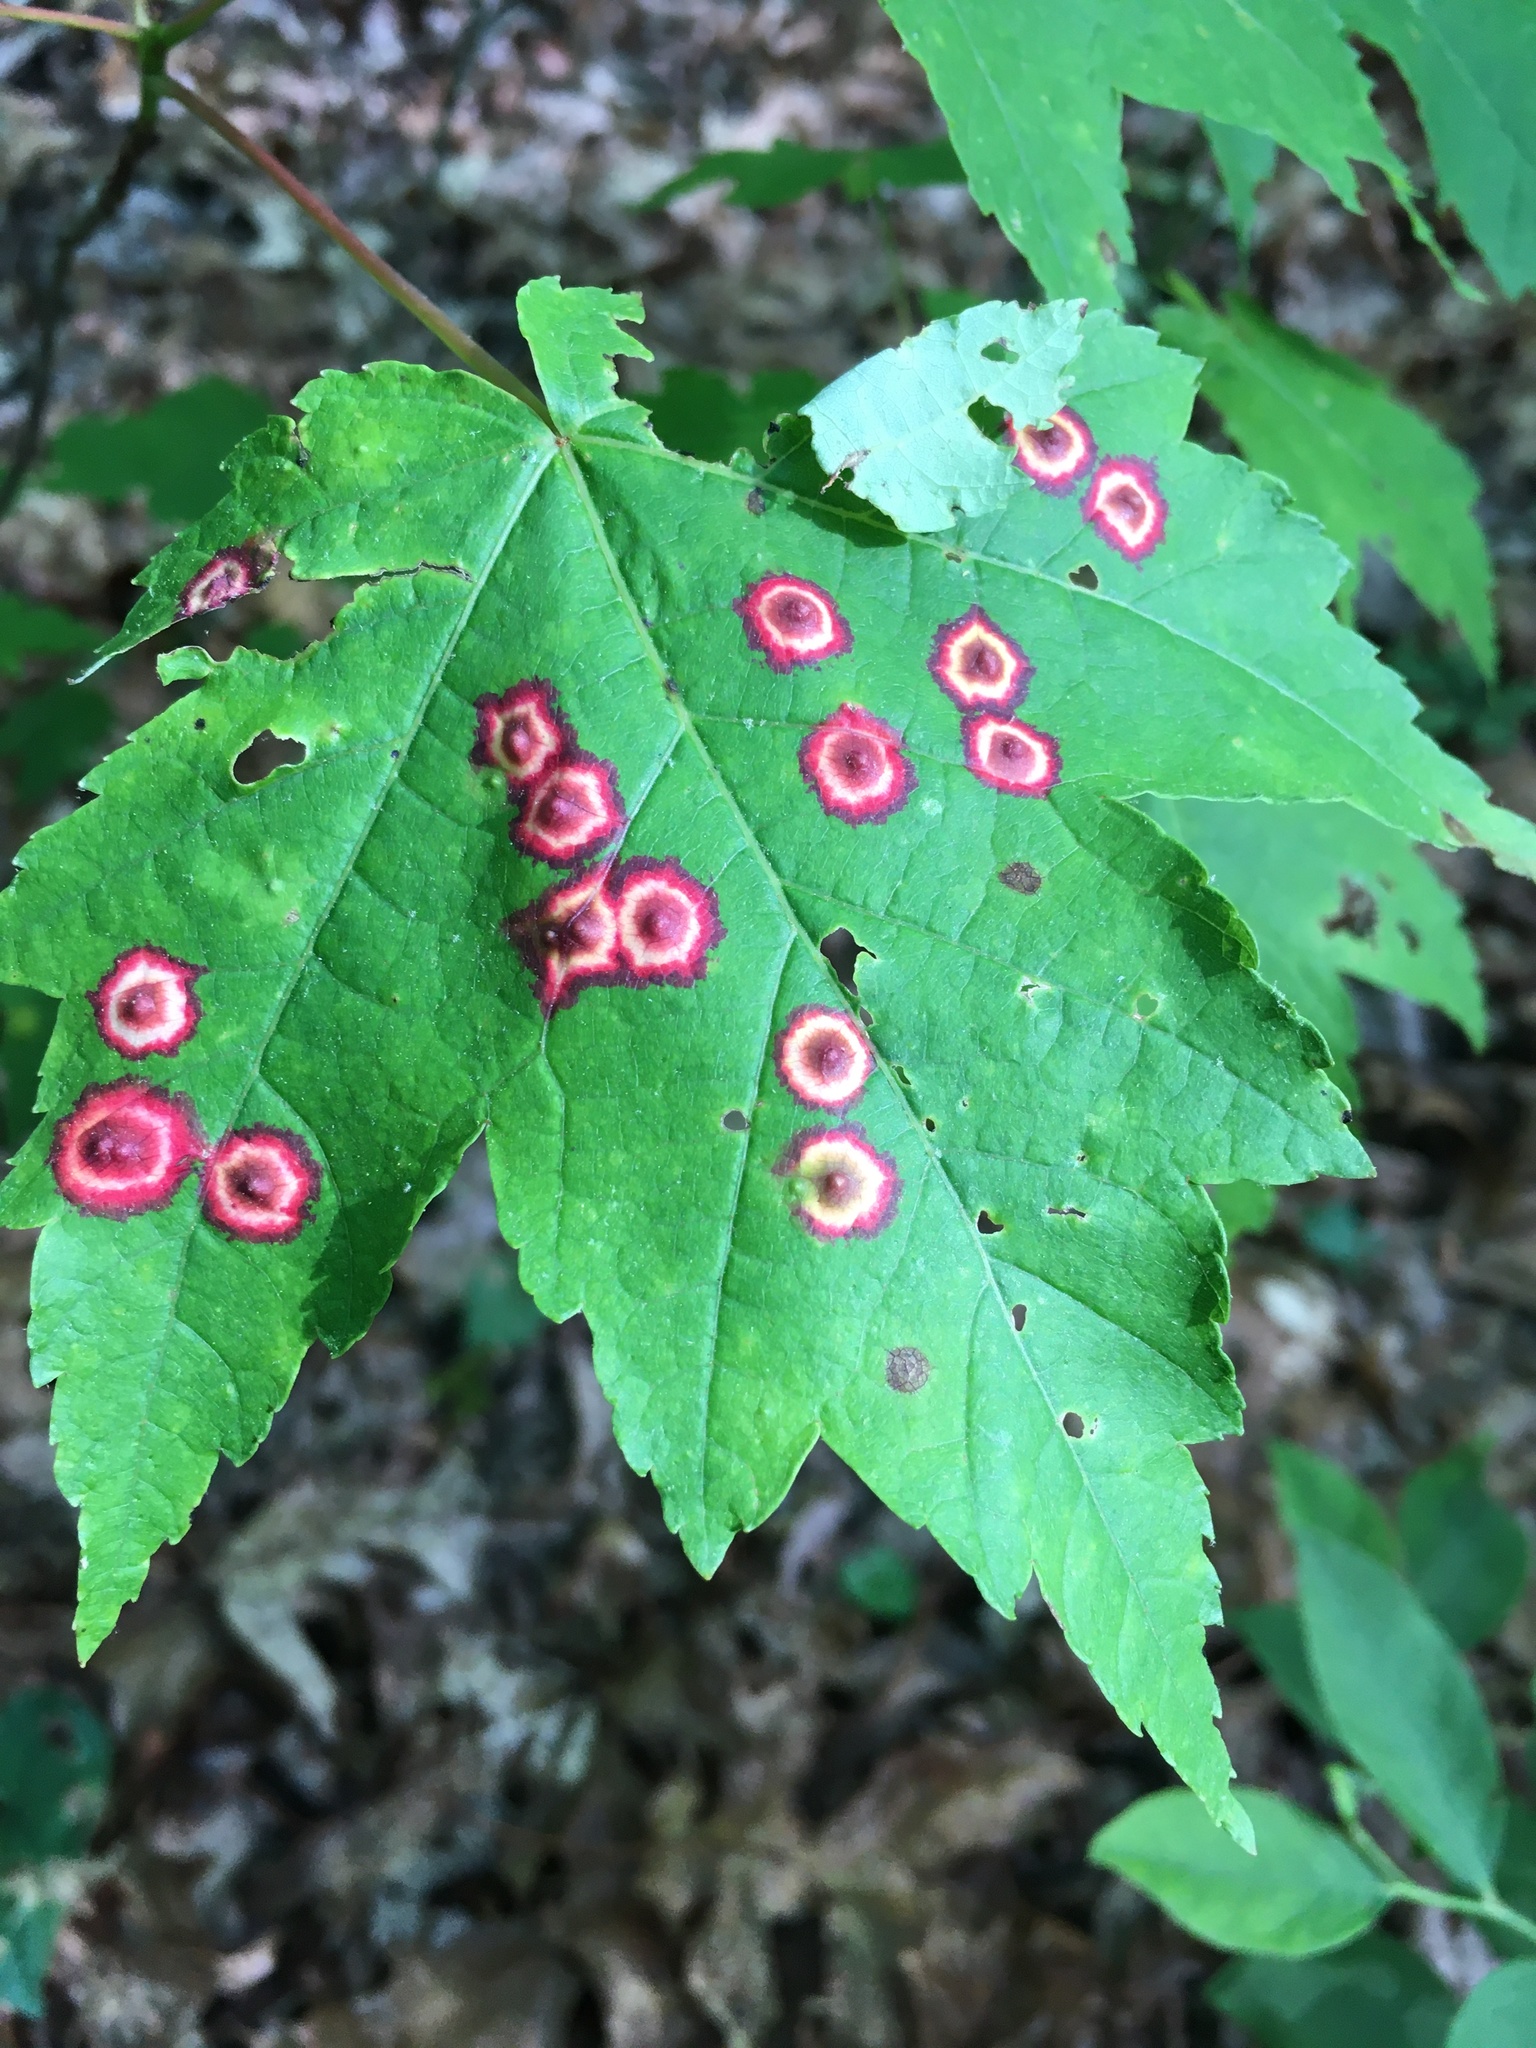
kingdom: Animalia
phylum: Arthropoda
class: Insecta
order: Diptera
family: Cecidomyiidae
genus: Acericecis
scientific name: Acericecis ocellaris
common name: Ocellate gall midge
